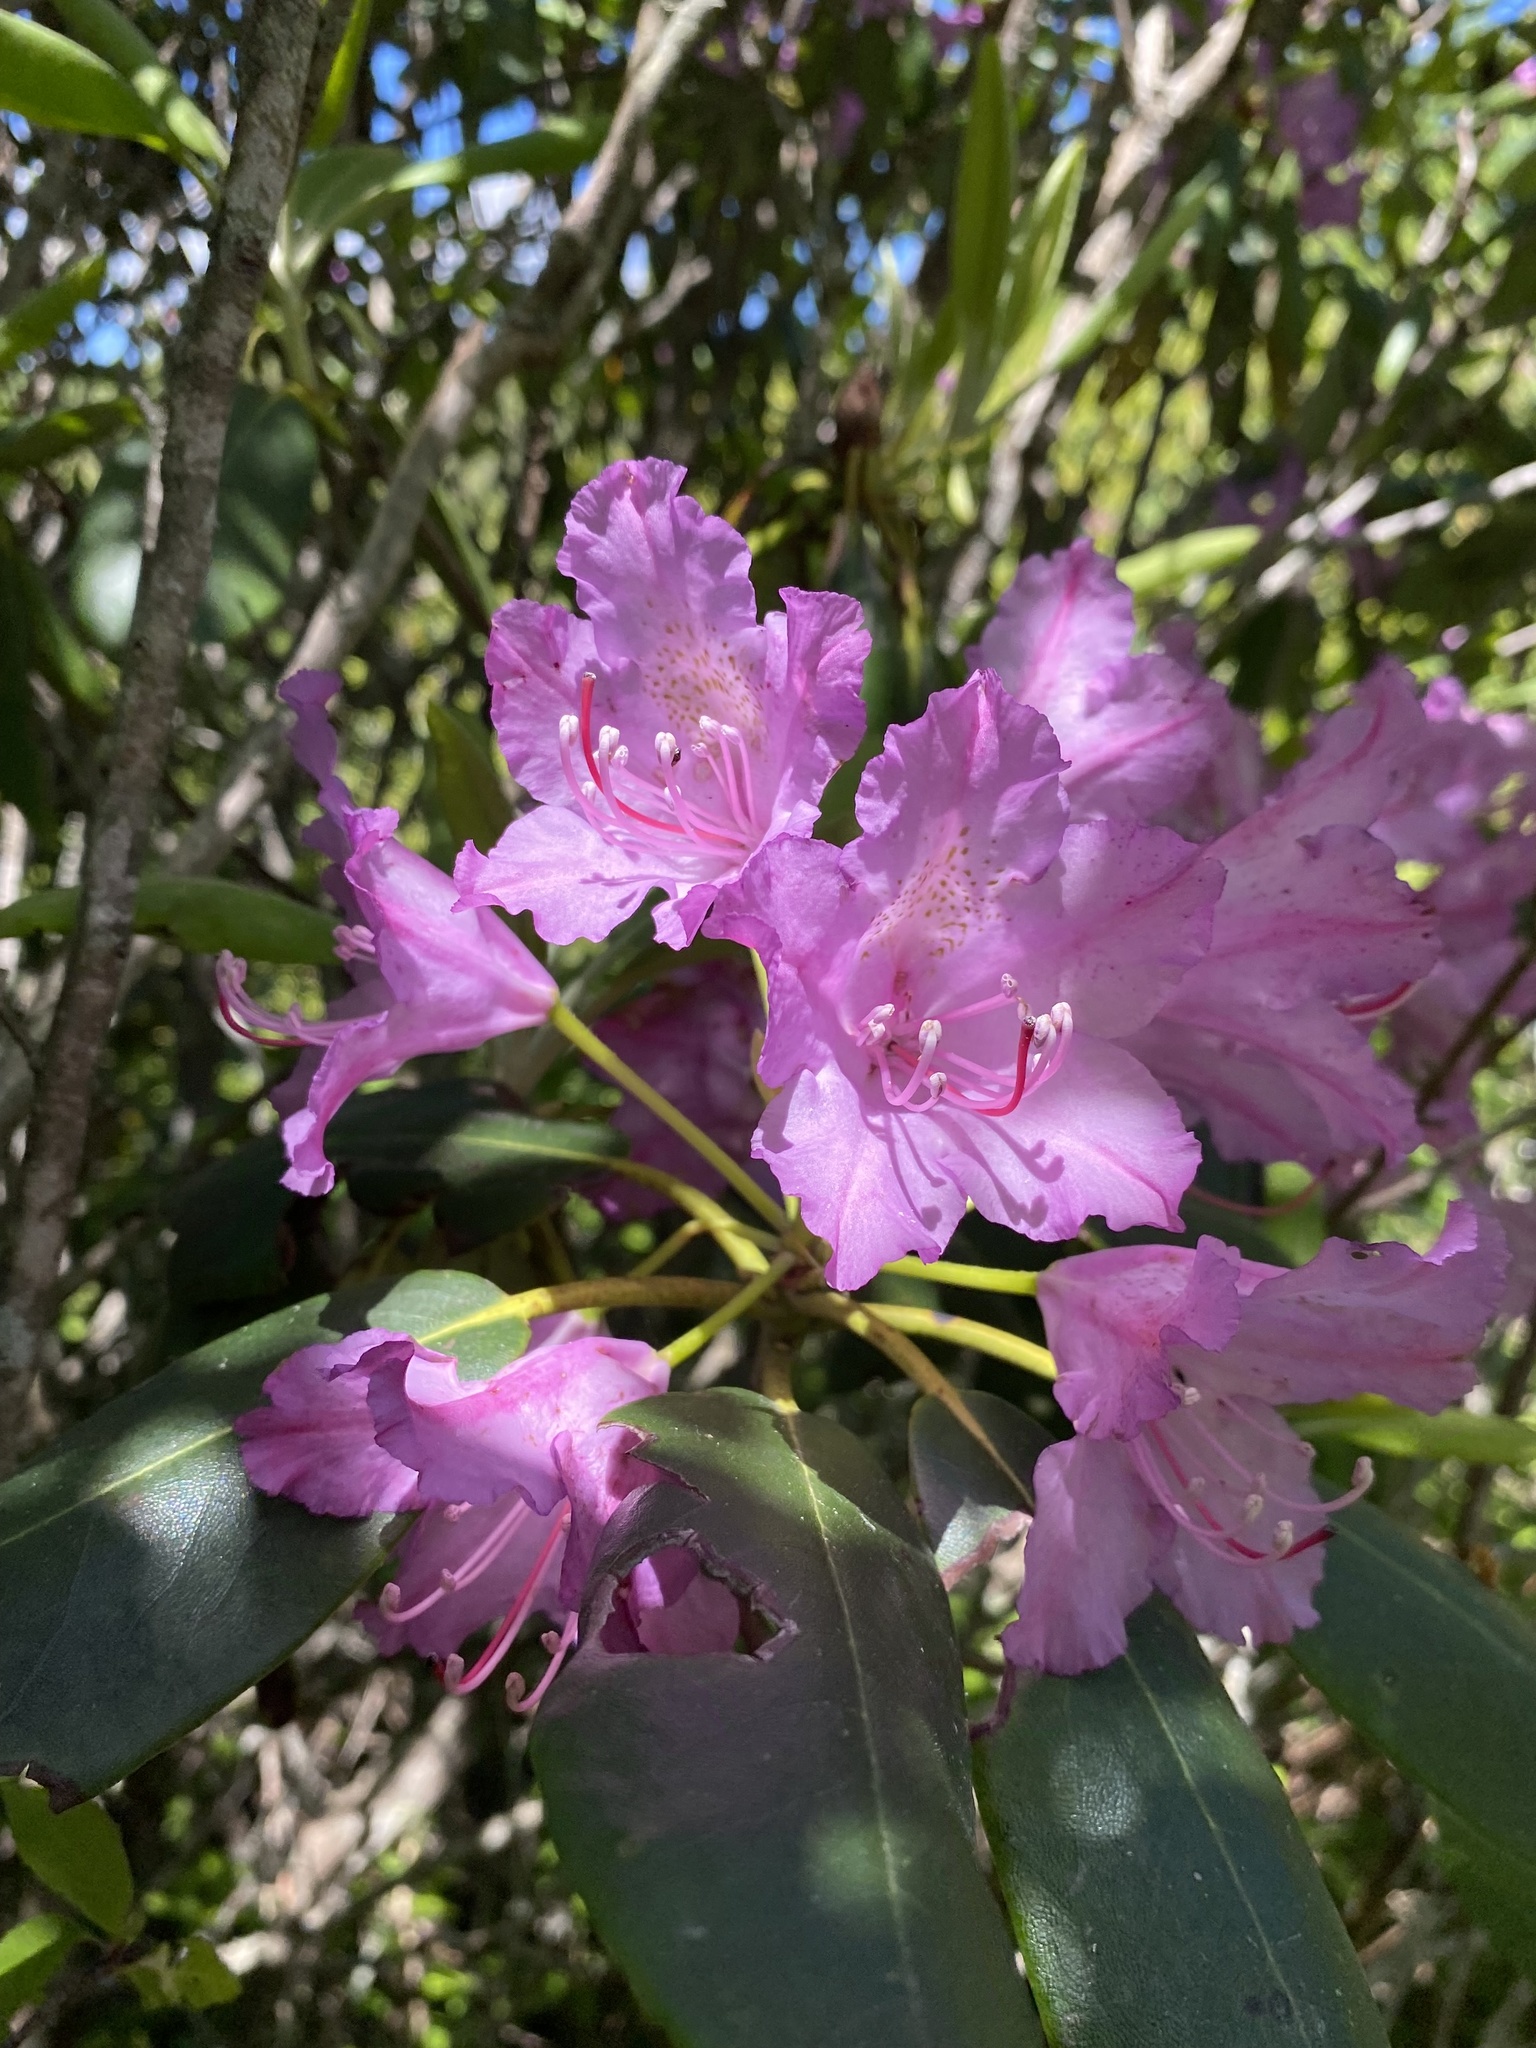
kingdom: Plantae
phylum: Tracheophyta
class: Magnoliopsida
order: Ericales
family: Ericaceae
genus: Rhododendron
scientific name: Rhododendron catawbiense
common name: Catawba rhododendron
